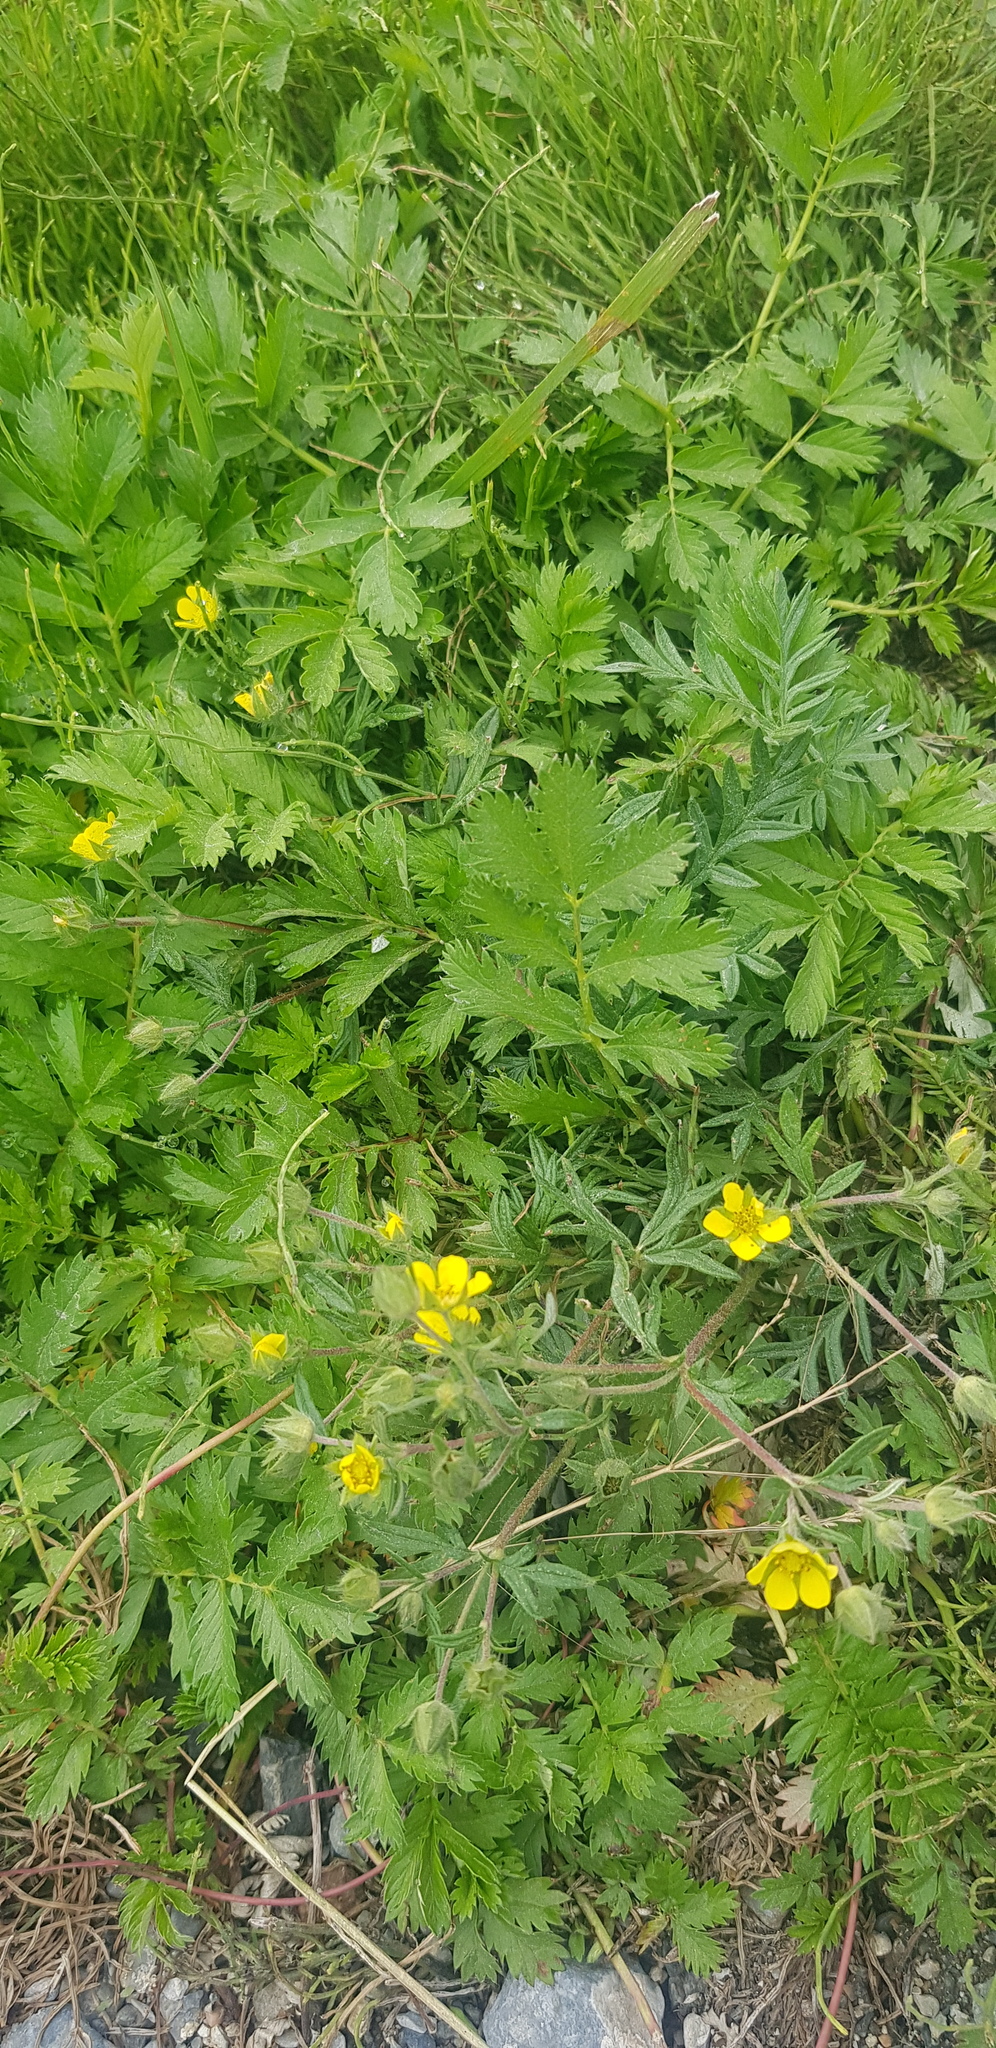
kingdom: Plantae
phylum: Tracheophyta
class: Magnoliopsida
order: Rosales
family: Rosaceae
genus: Argentina
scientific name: Argentina anserina
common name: Common silverweed
